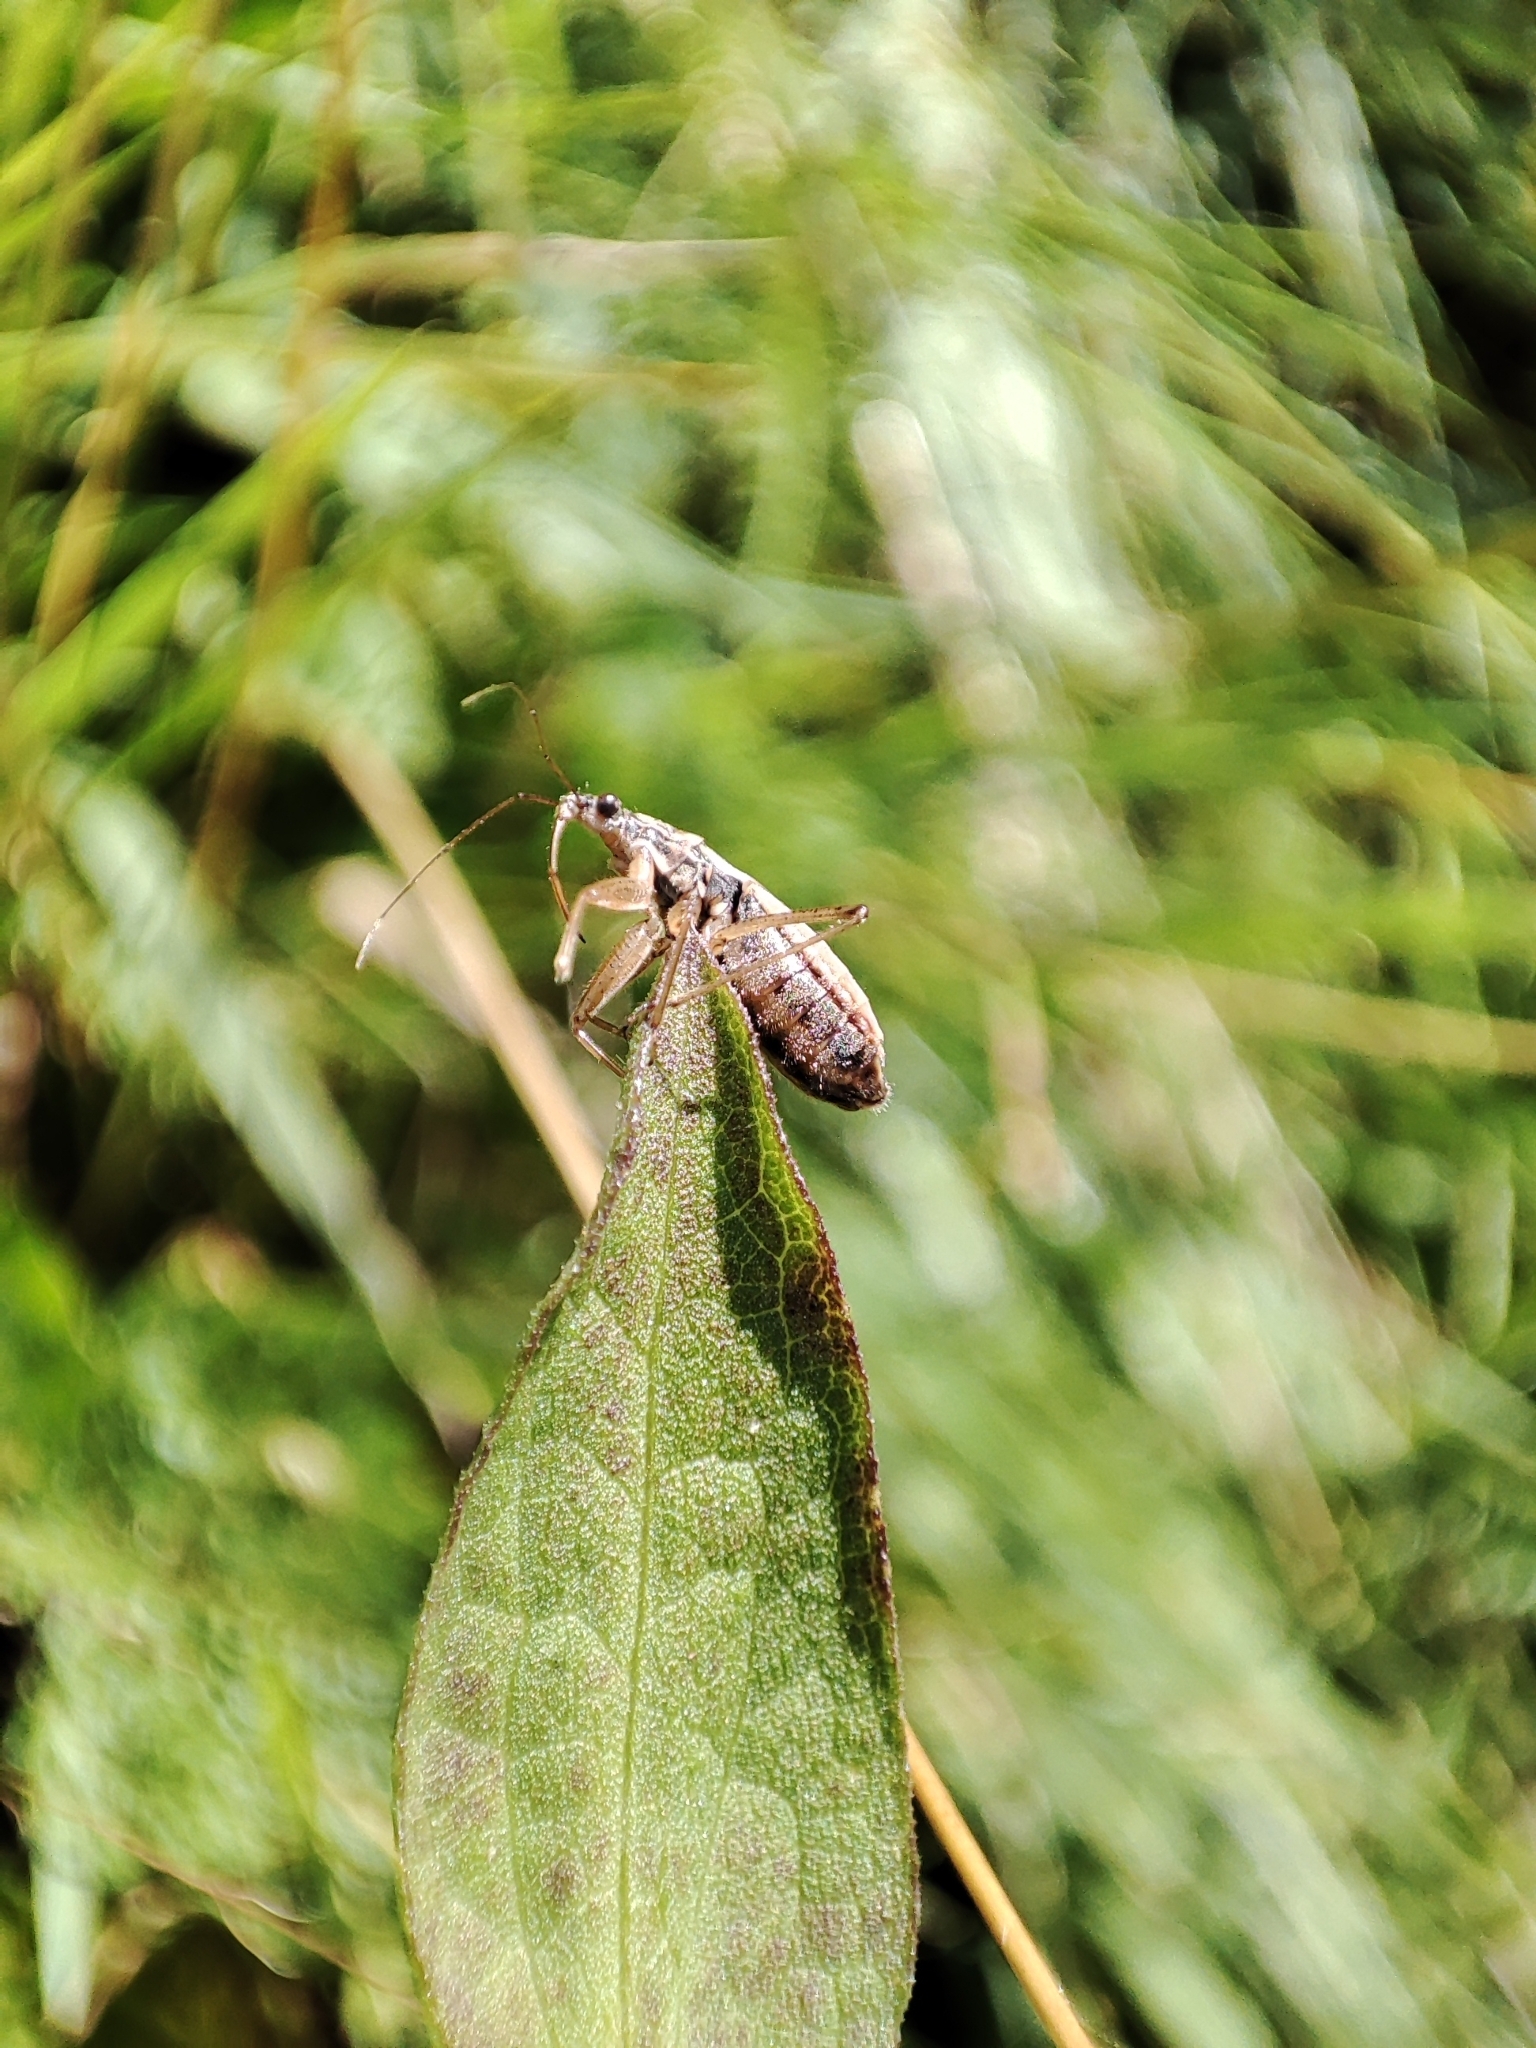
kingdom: Animalia
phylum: Arthropoda
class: Insecta
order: Hemiptera
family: Nabidae
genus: Nabis
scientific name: Nabis flavomarginatus
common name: Broad damselbug
